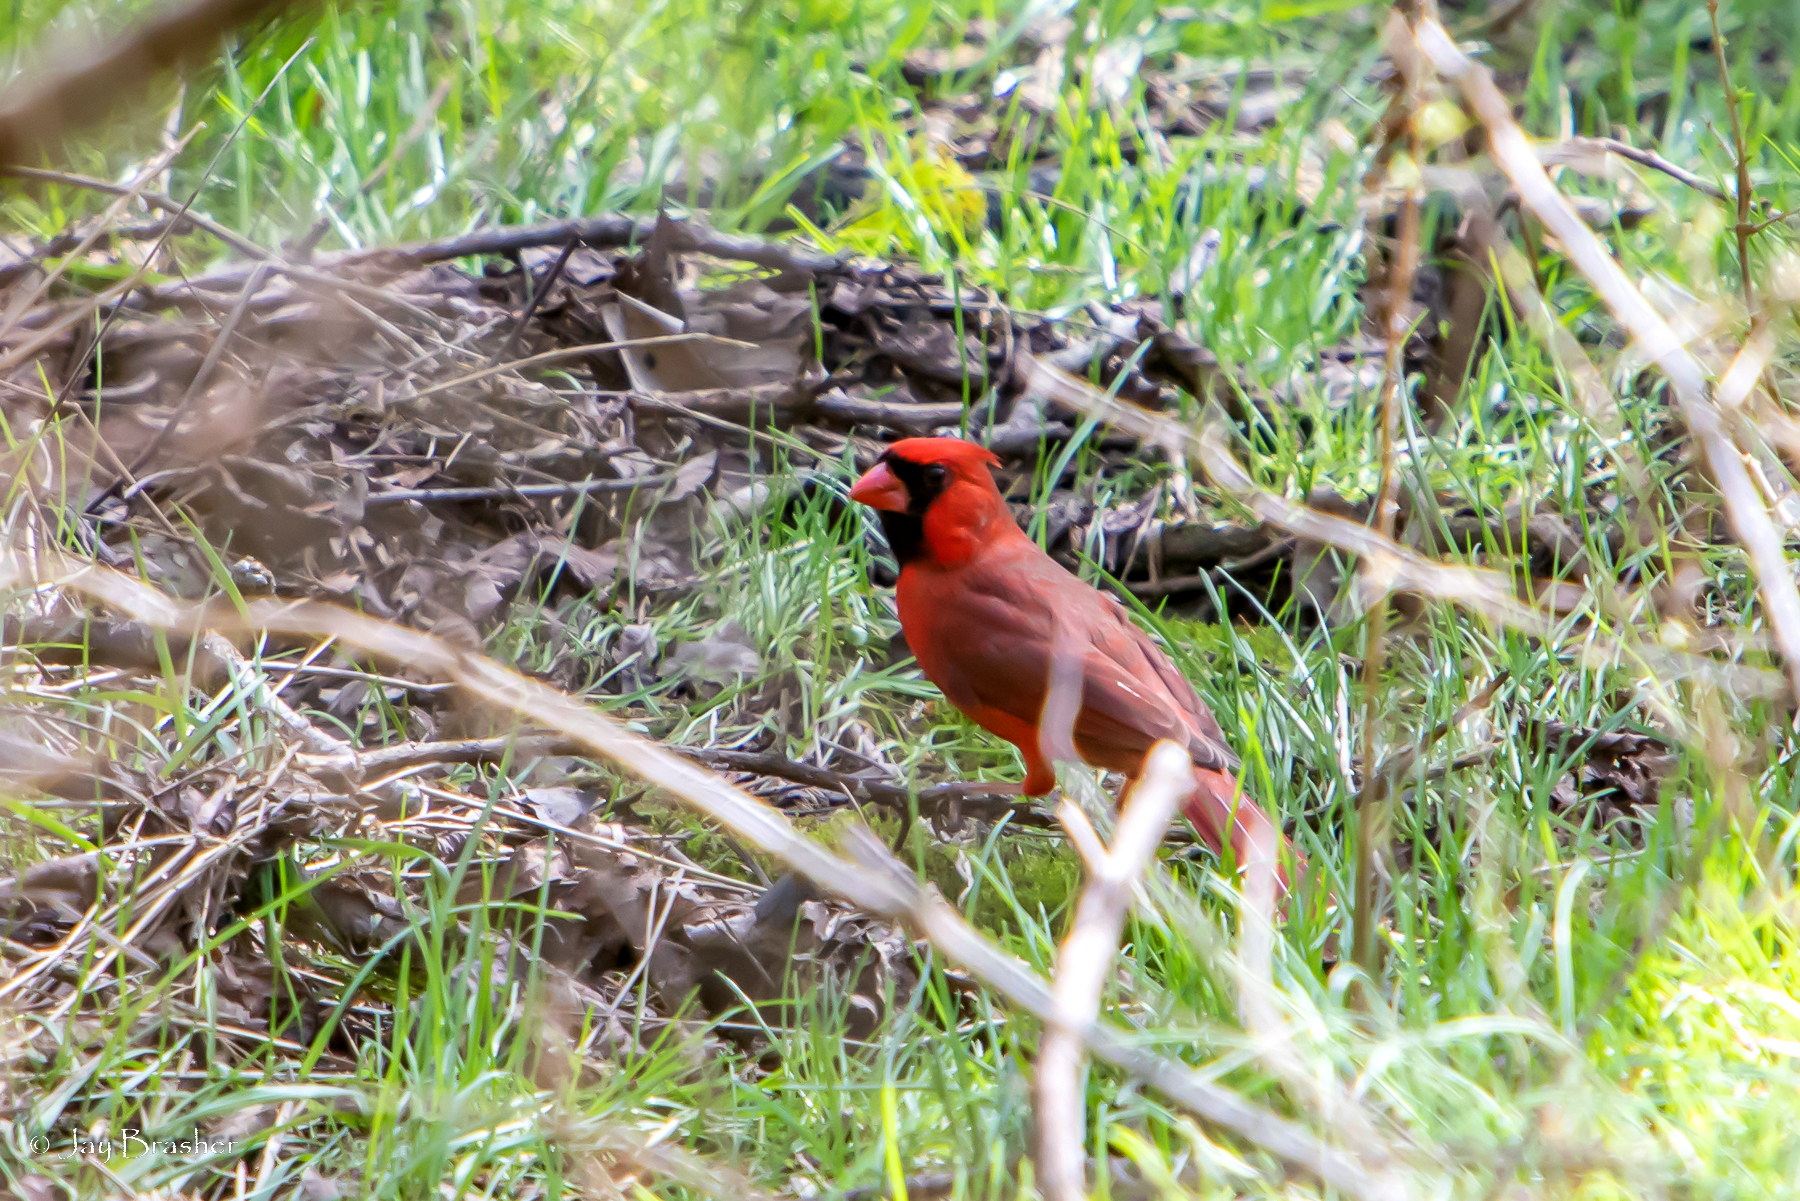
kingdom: Animalia
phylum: Chordata
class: Aves
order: Passeriformes
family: Cardinalidae
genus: Cardinalis
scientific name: Cardinalis cardinalis
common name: Northern cardinal
